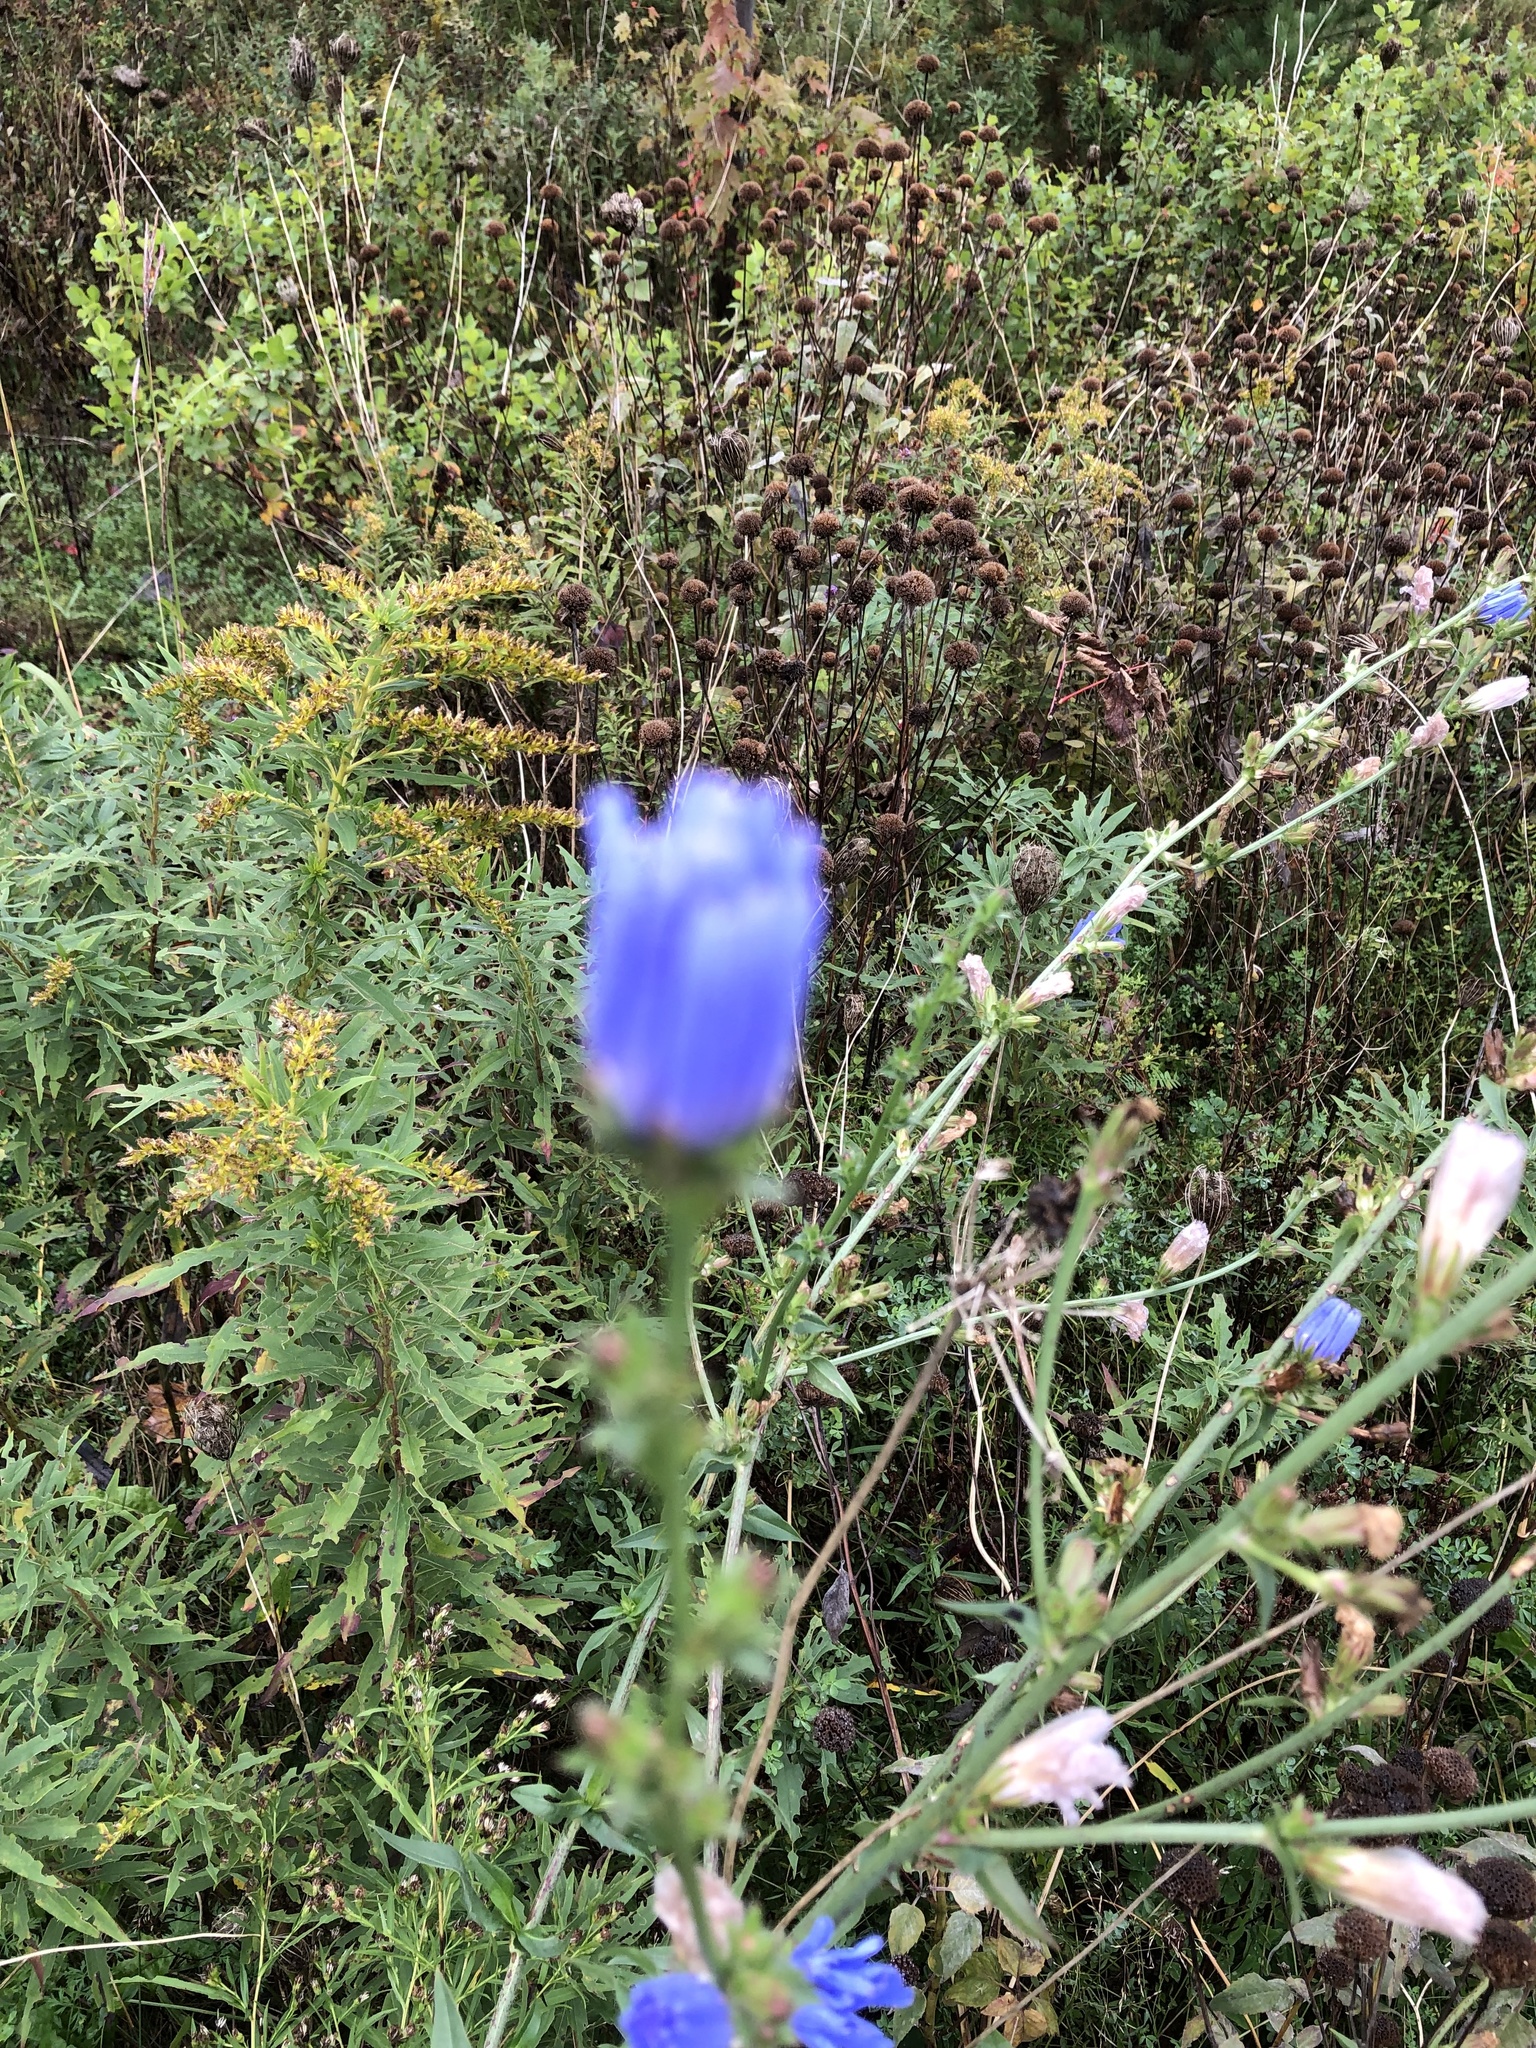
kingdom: Plantae
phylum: Tracheophyta
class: Magnoliopsida
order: Asterales
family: Asteraceae
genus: Cichorium
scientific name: Cichorium intybus
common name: Chicory
